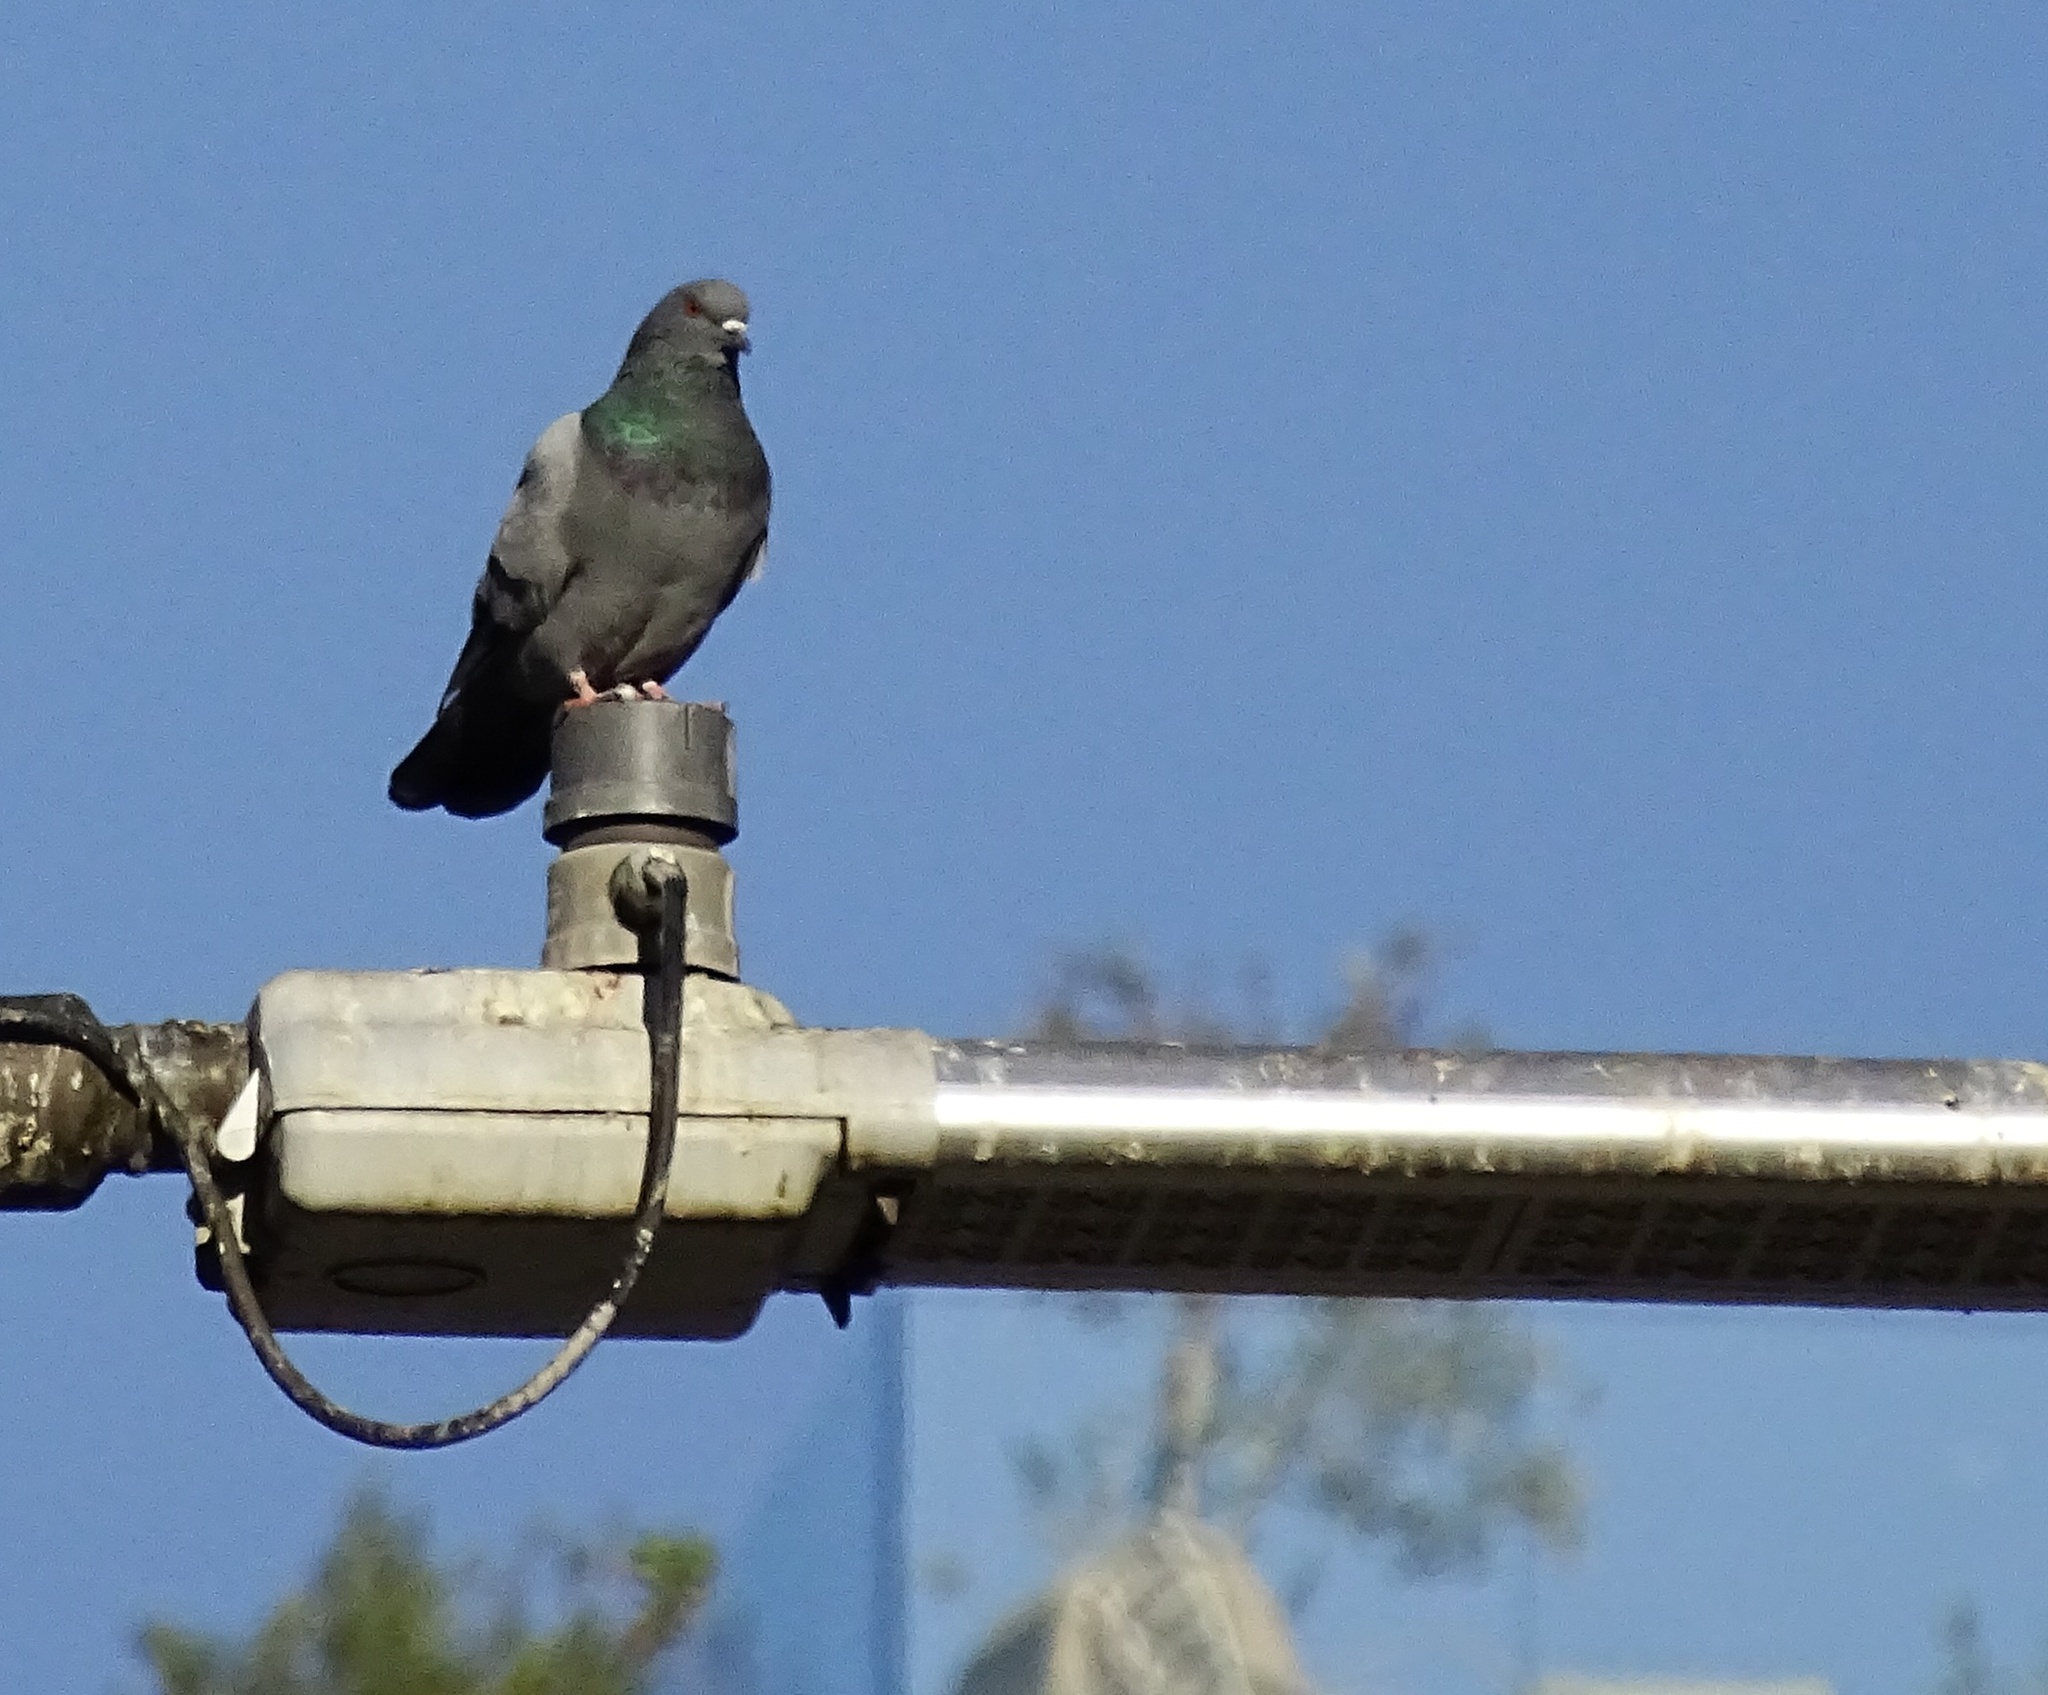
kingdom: Animalia
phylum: Chordata
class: Aves
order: Columbiformes
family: Columbidae
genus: Columba
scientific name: Columba livia
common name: Rock pigeon
